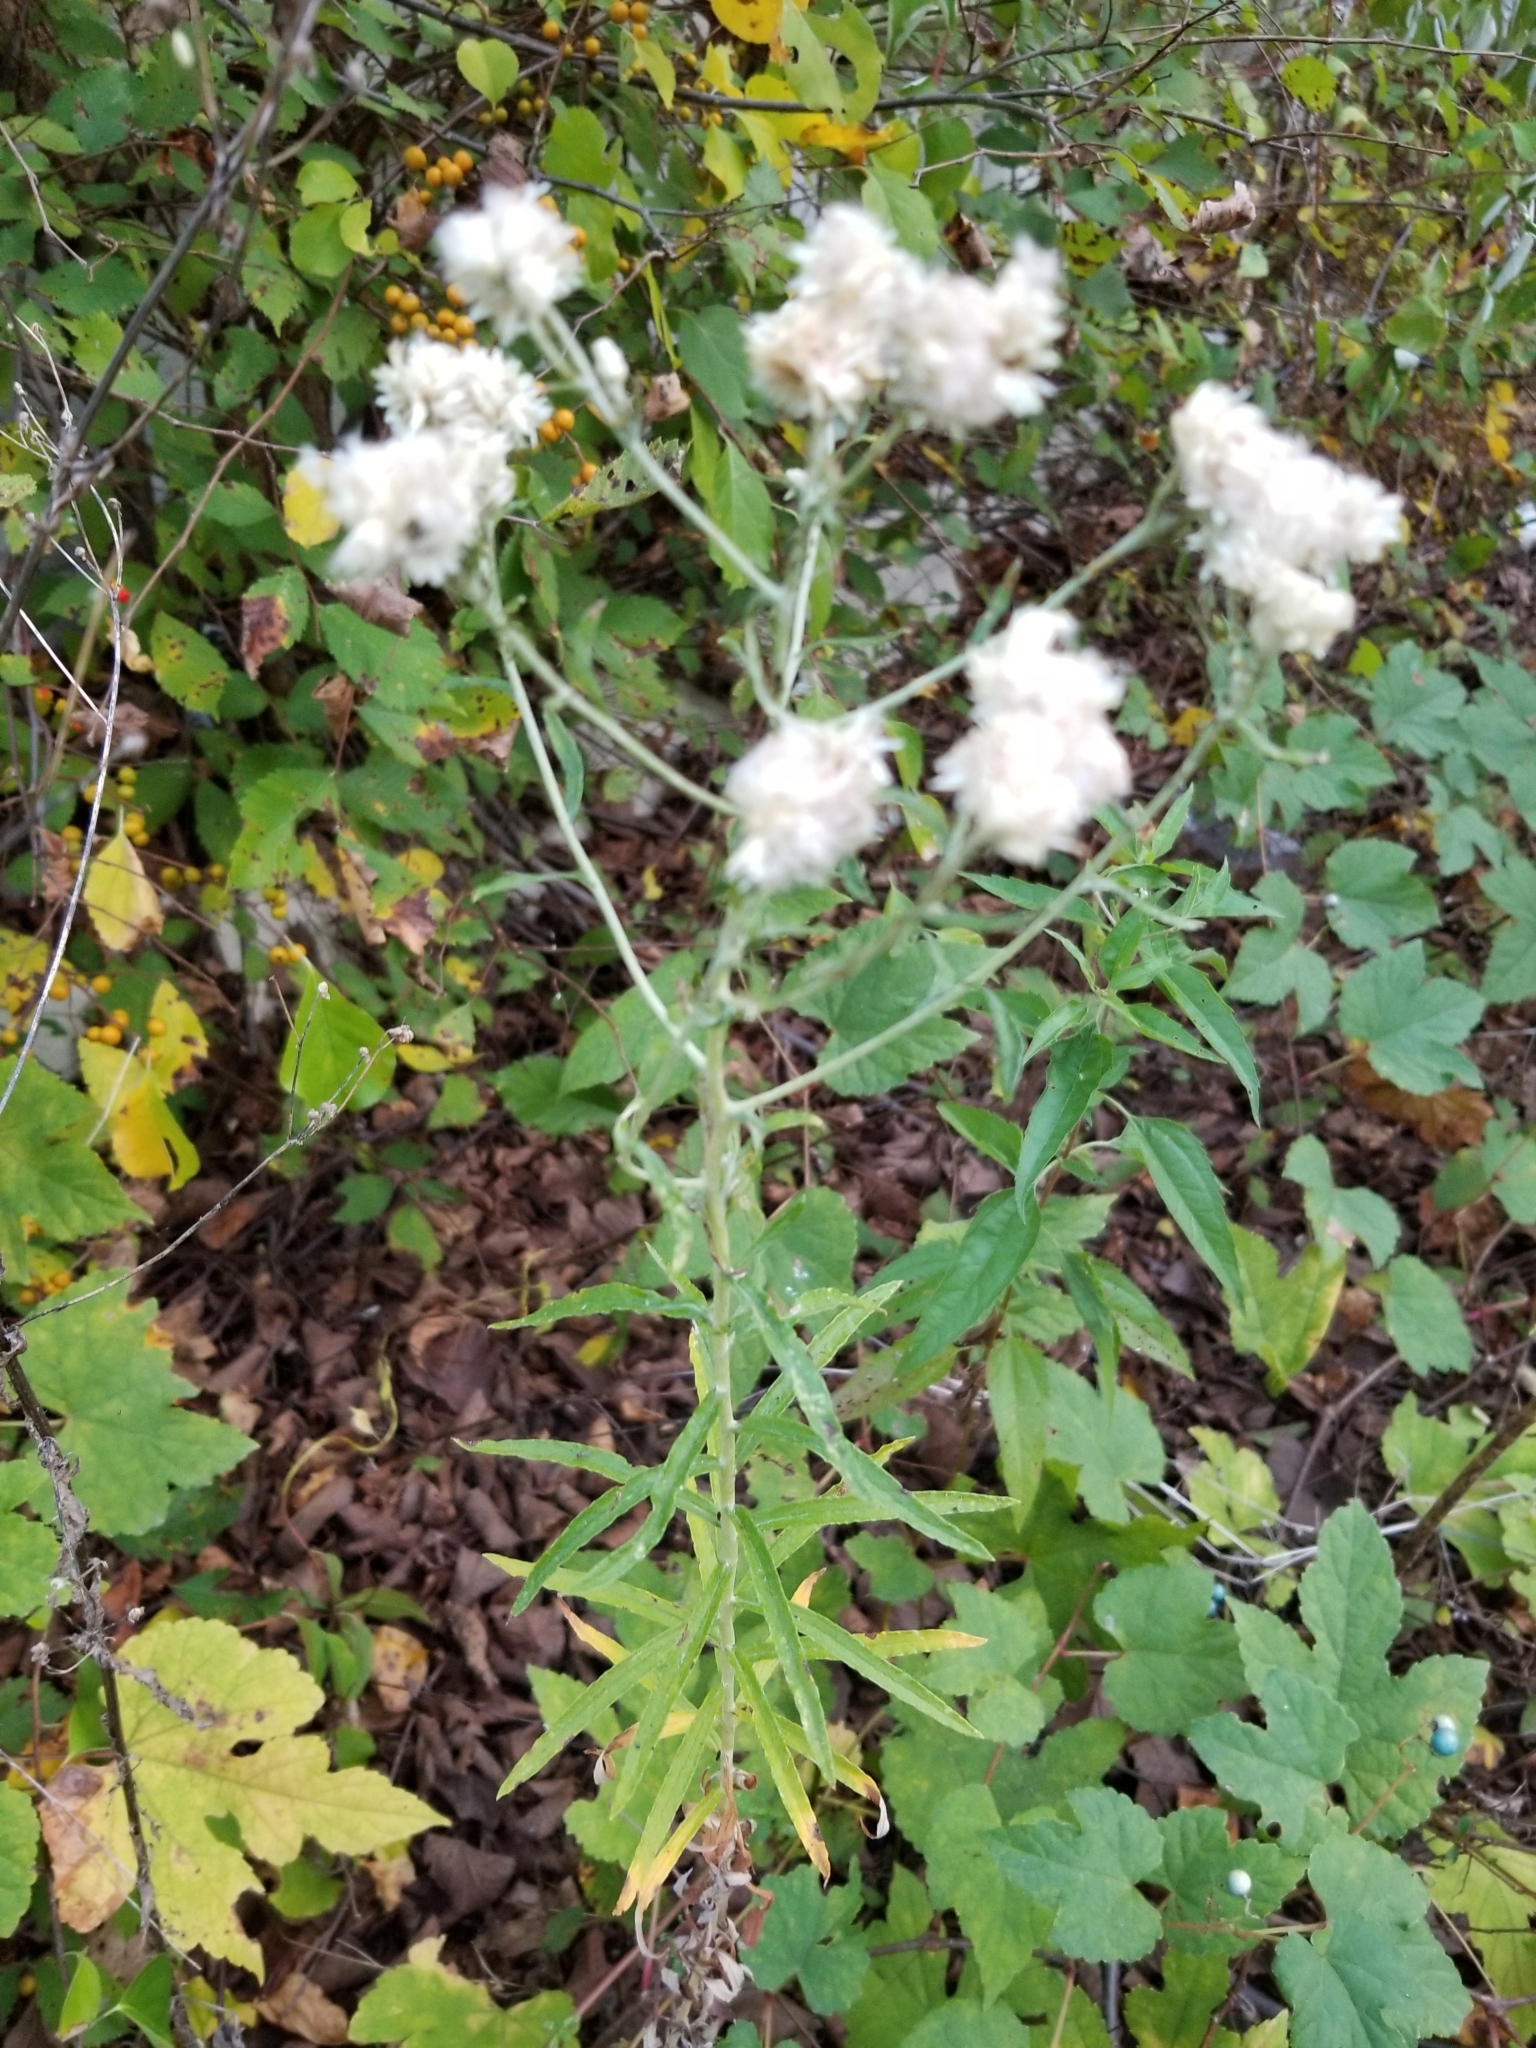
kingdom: Plantae
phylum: Tracheophyta
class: Magnoliopsida
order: Asterales
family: Asteraceae
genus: Pseudognaphalium
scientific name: Pseudognaphalium obtusifolium
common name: Eastern rabbit-tobacco
